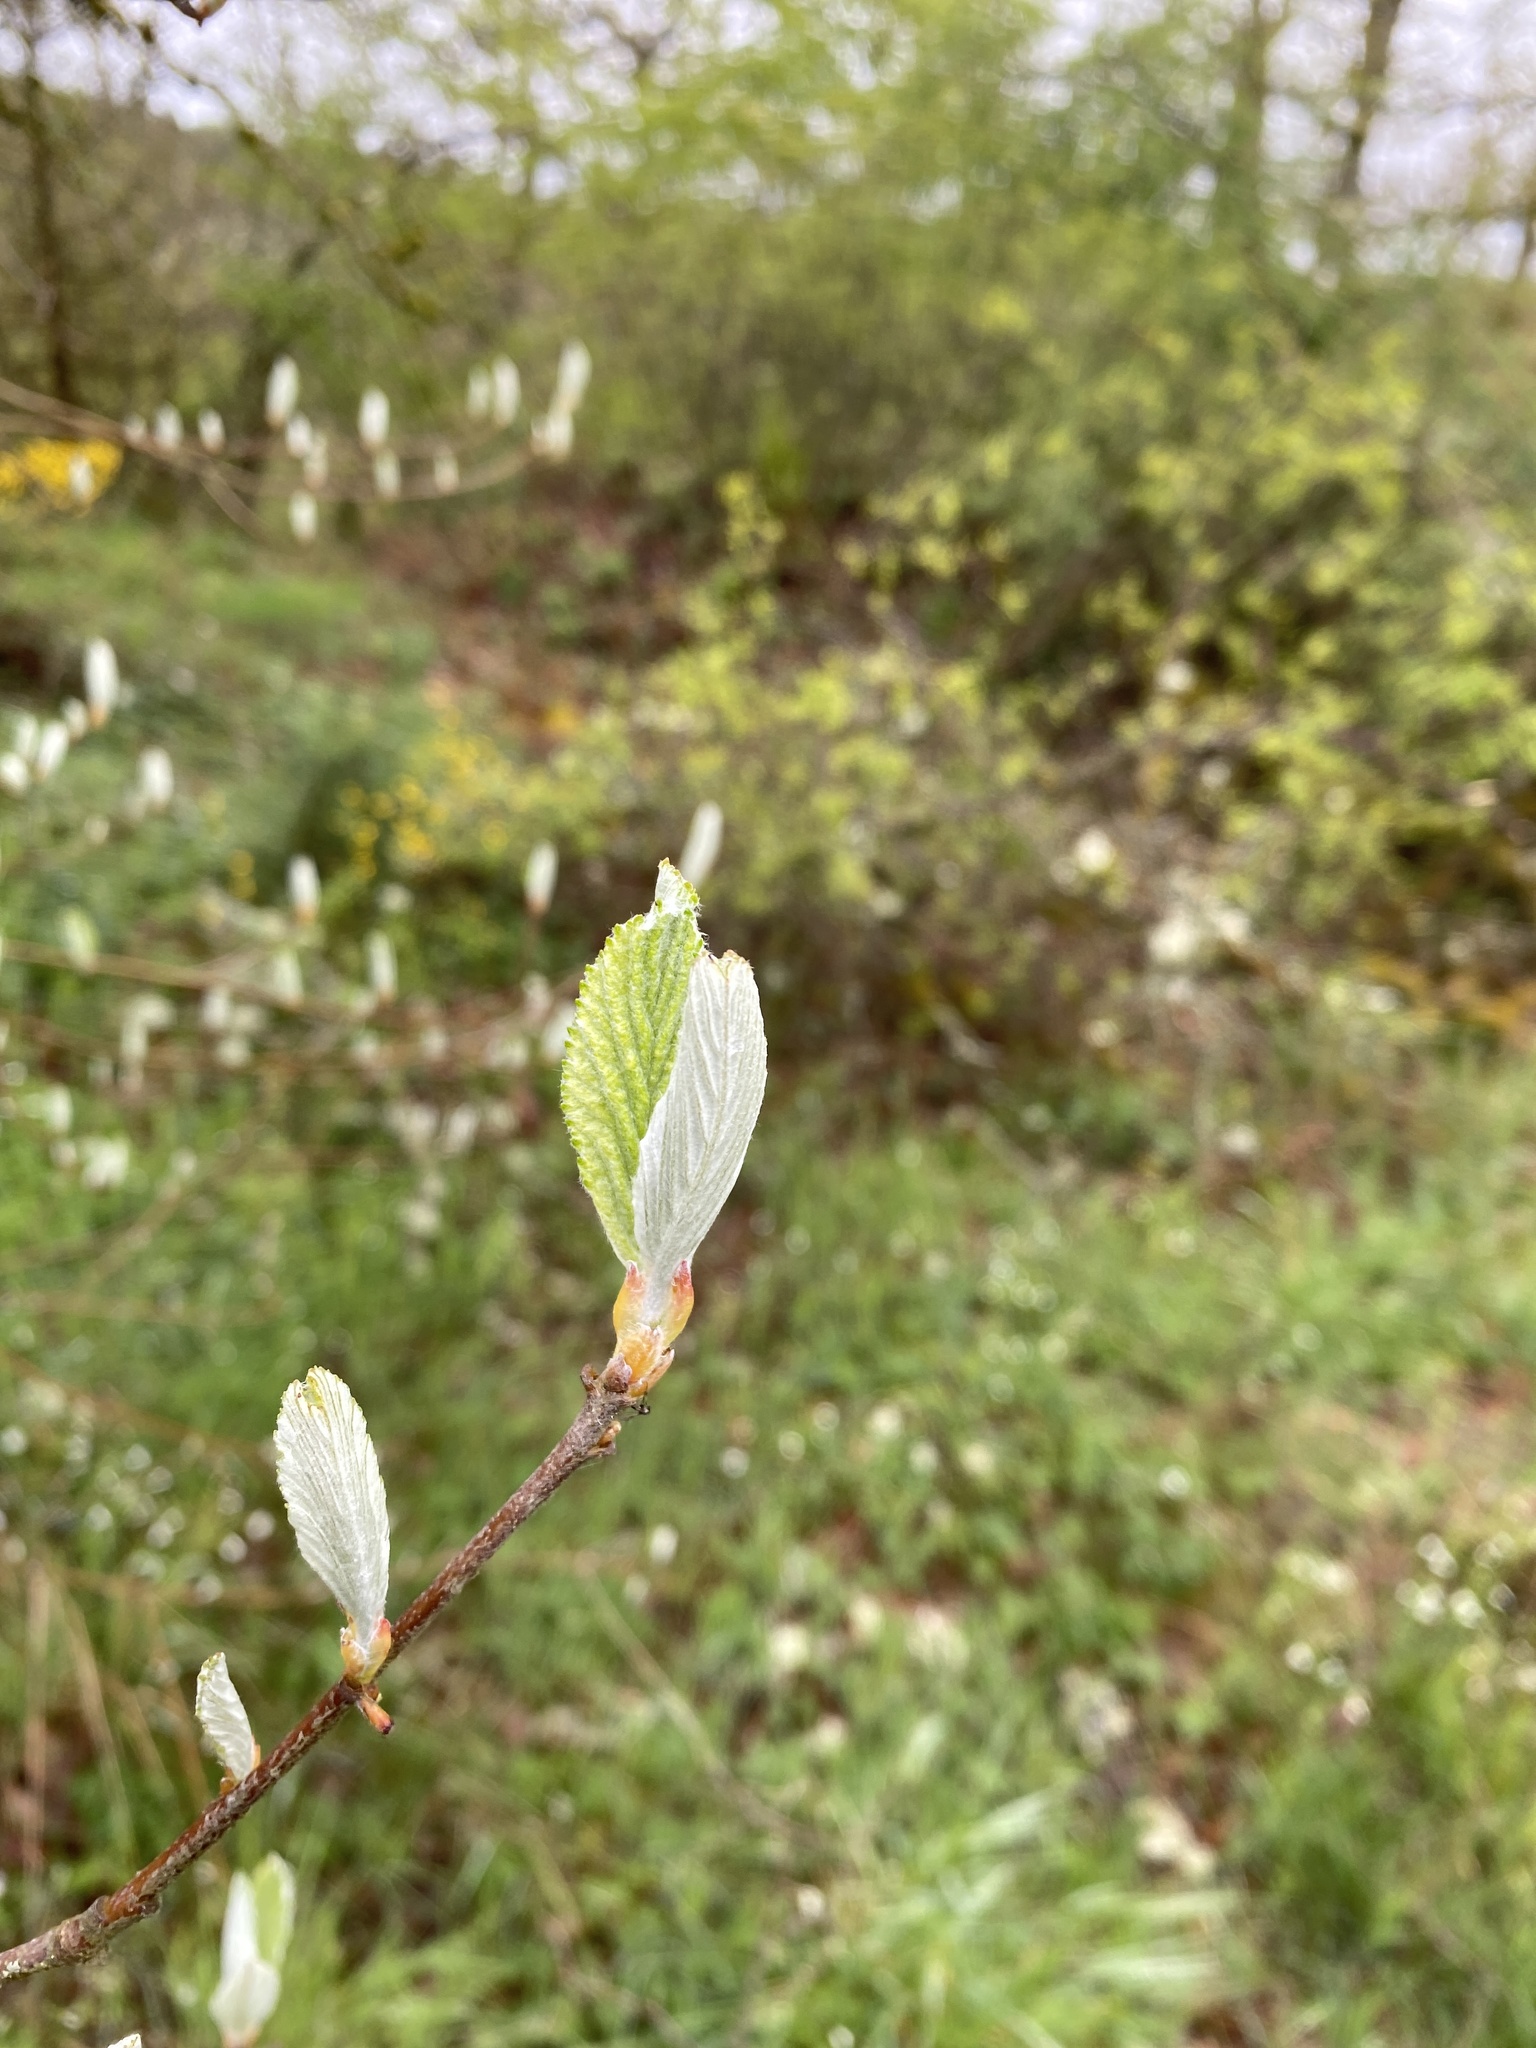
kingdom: Plantae
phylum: Tracheophyta
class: Magnoliopsida
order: Rosales
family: Rosaceae
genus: Aria
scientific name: Aria edulis
